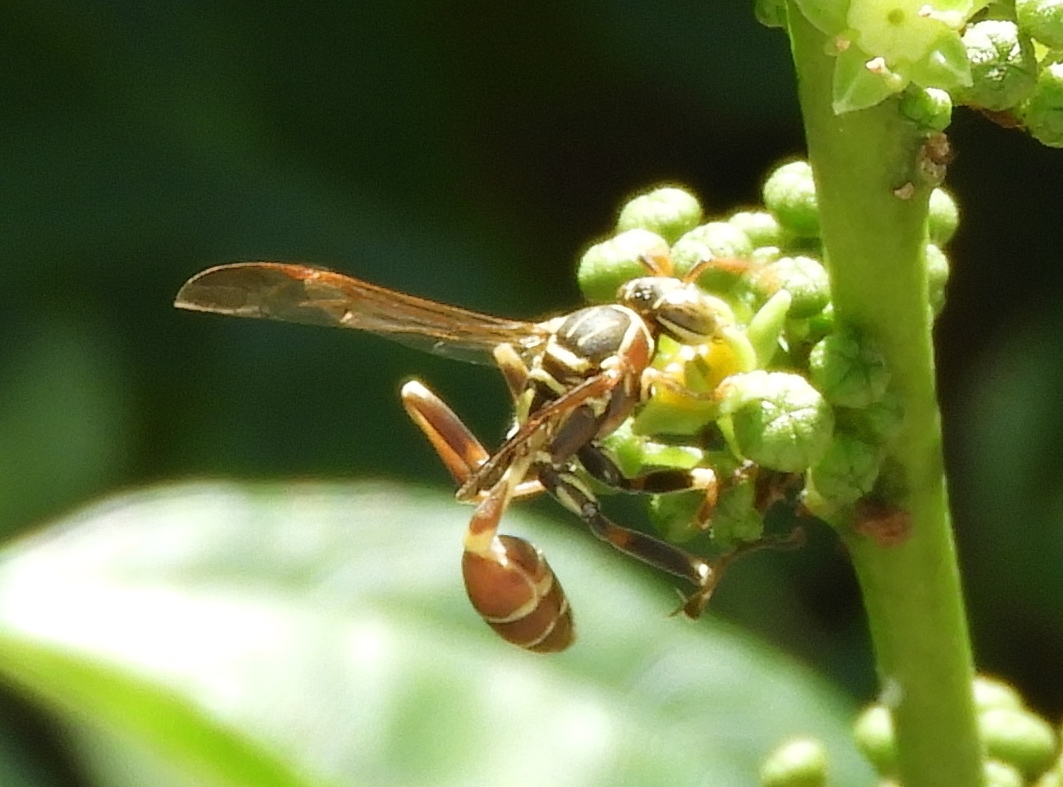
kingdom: Animalia
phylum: Arthropoda
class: Insecta
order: Hymenoptera
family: Vespidae
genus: Mischocyttarus
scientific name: Mischocyttarus mexicanus
